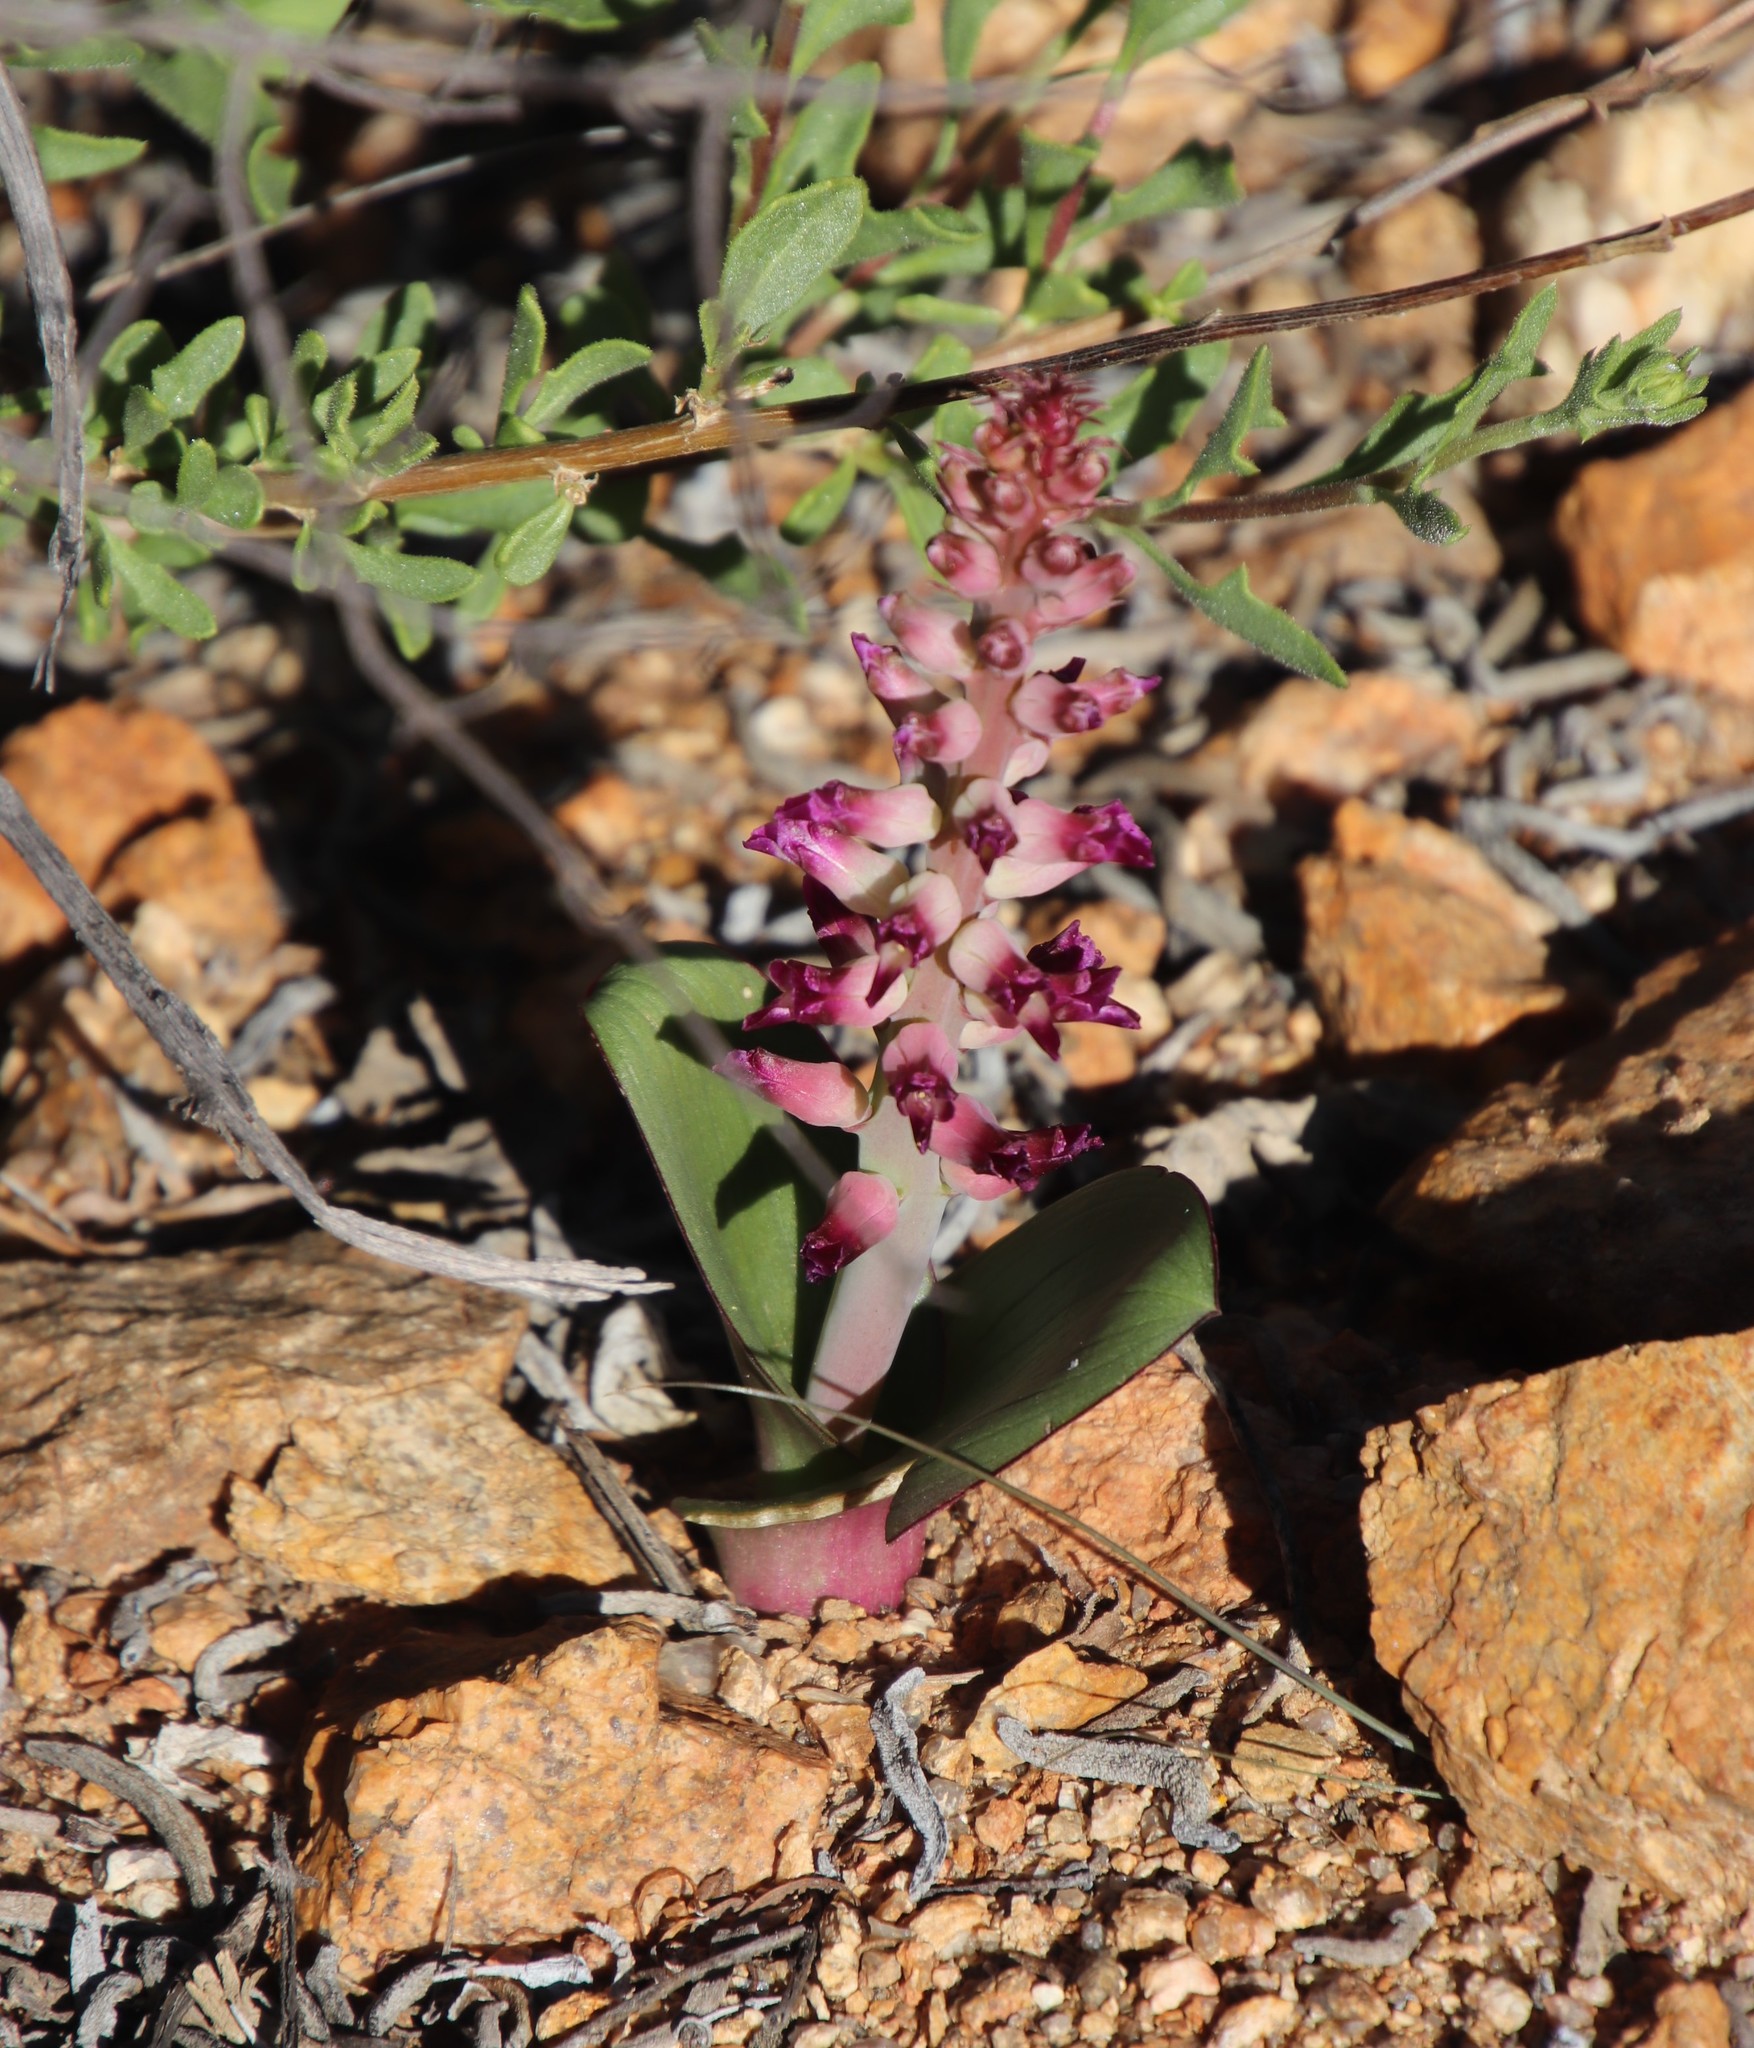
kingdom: Plantae
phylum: Tracheophyta
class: Liliopsida
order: Asparagales
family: Asparagaceae
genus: Lachenalia
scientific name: Lachenalia carnosa
